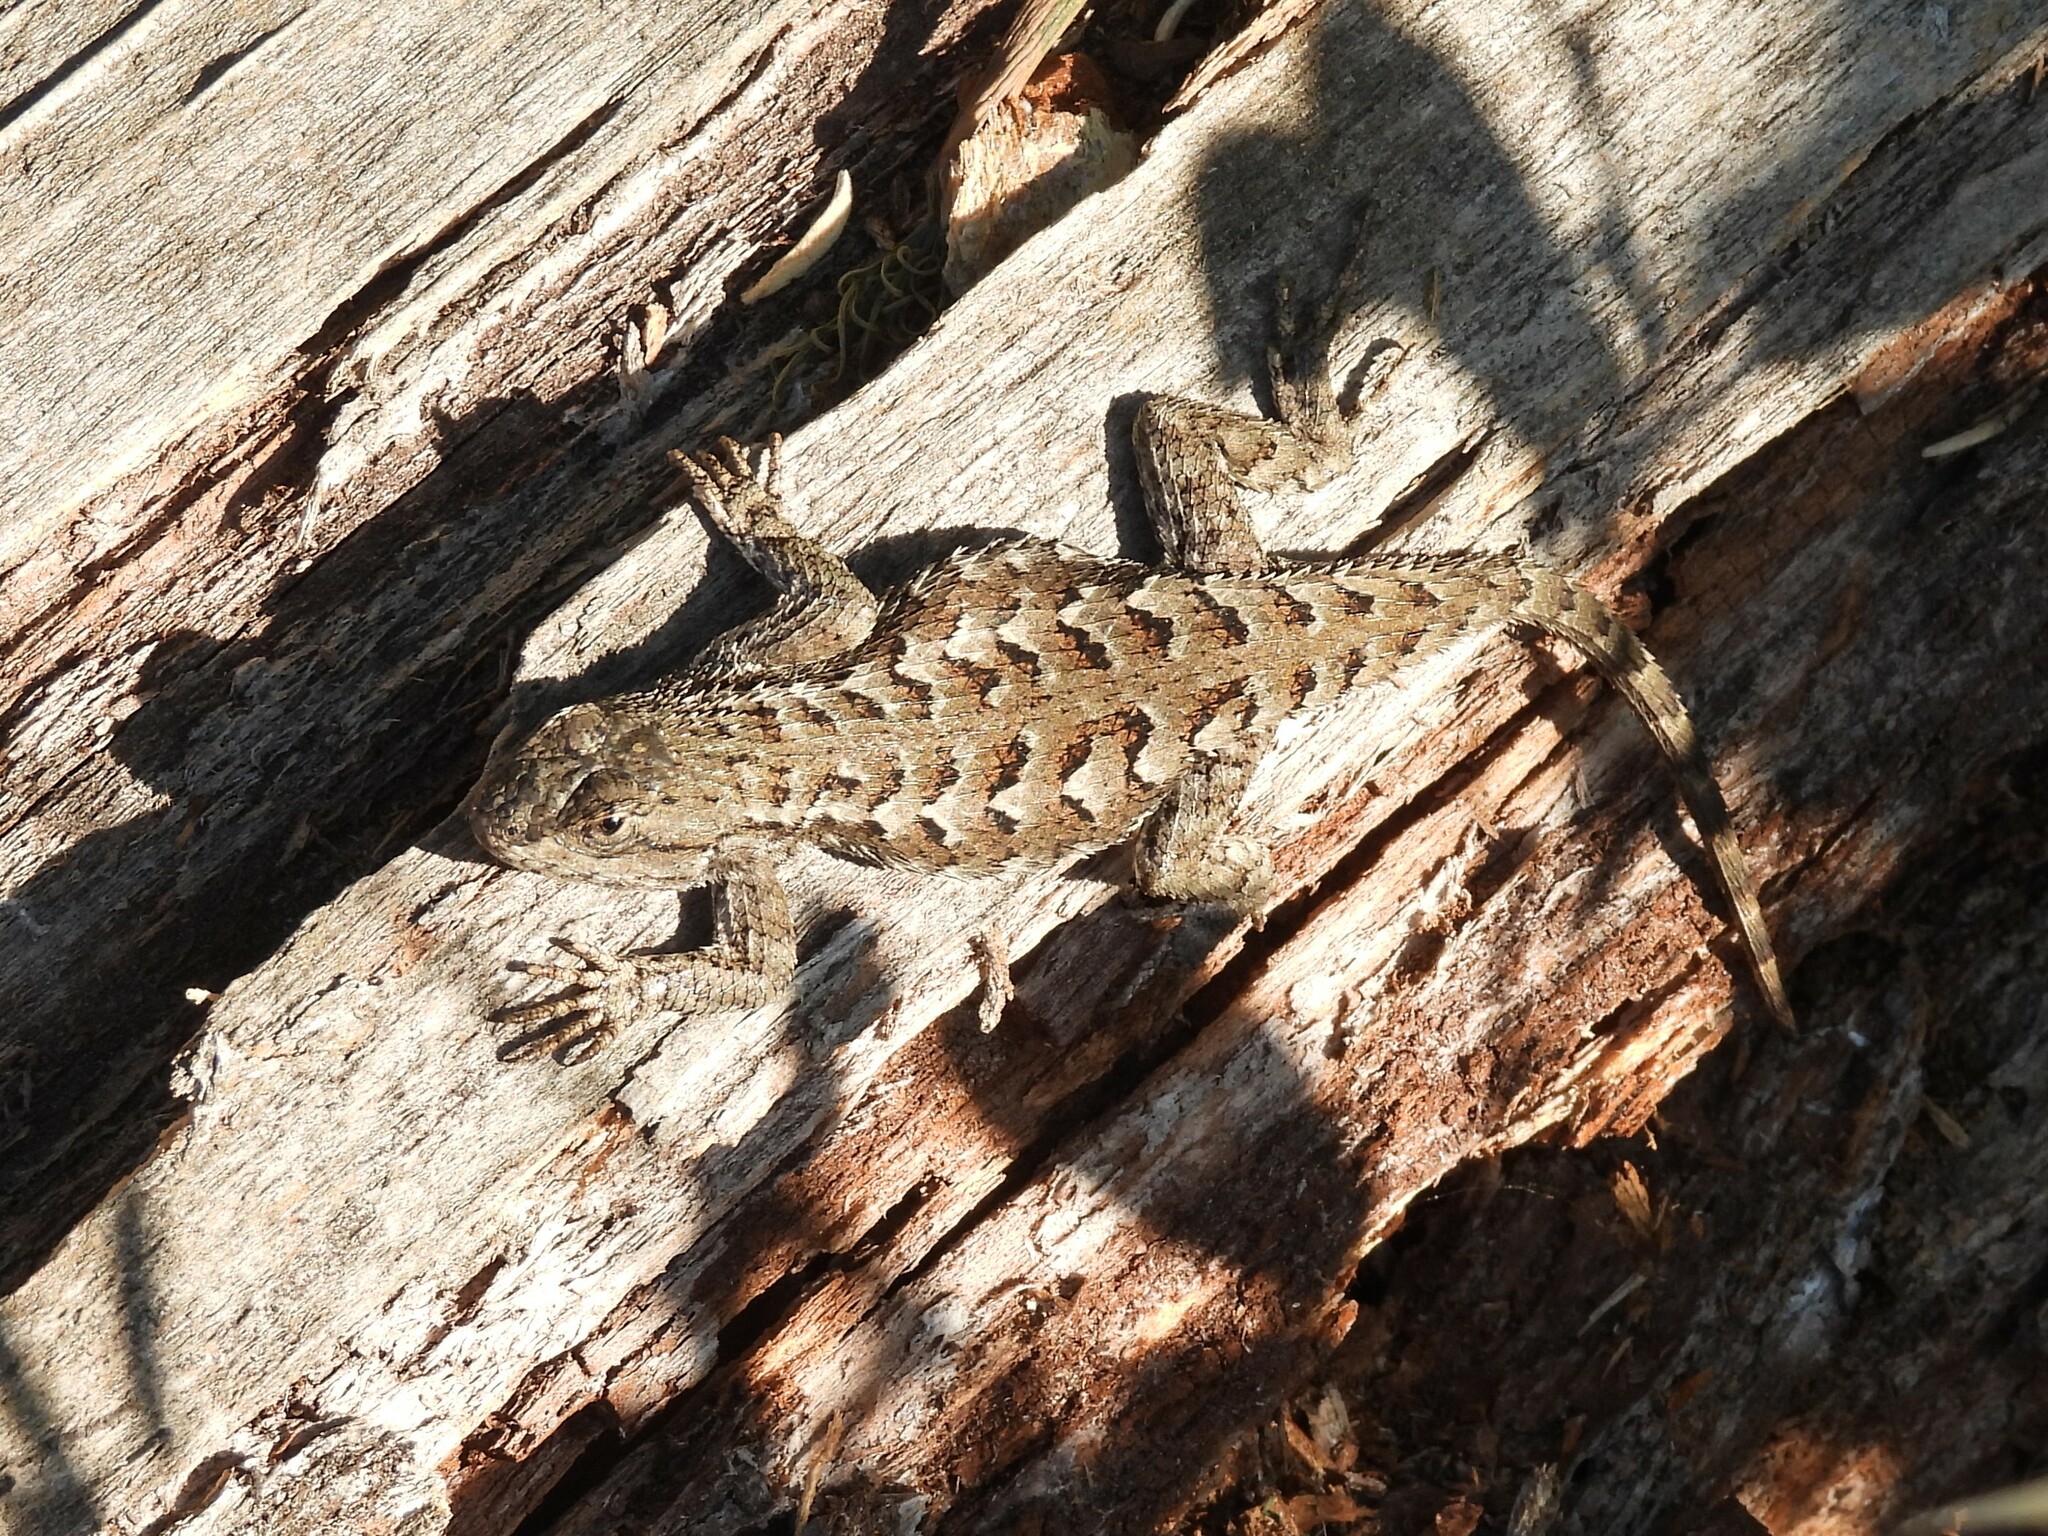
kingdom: Animalia
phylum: Chordata
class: Squamata
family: Phrynosomatidae
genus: Sceloporus
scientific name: Sceloporus occidentalis
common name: Western fence lizard
